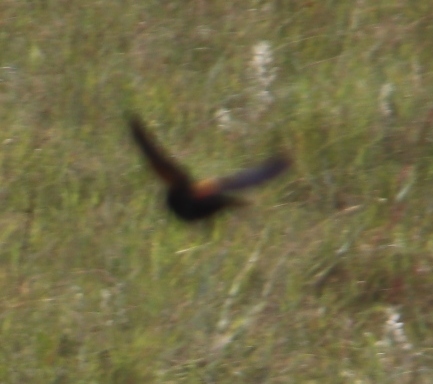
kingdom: Animalia
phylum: Chordata
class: Aves
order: Passeriformes
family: Ploceidae
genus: Euplectes
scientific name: Euplectes axillaris
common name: Fan-tailed widowbird
